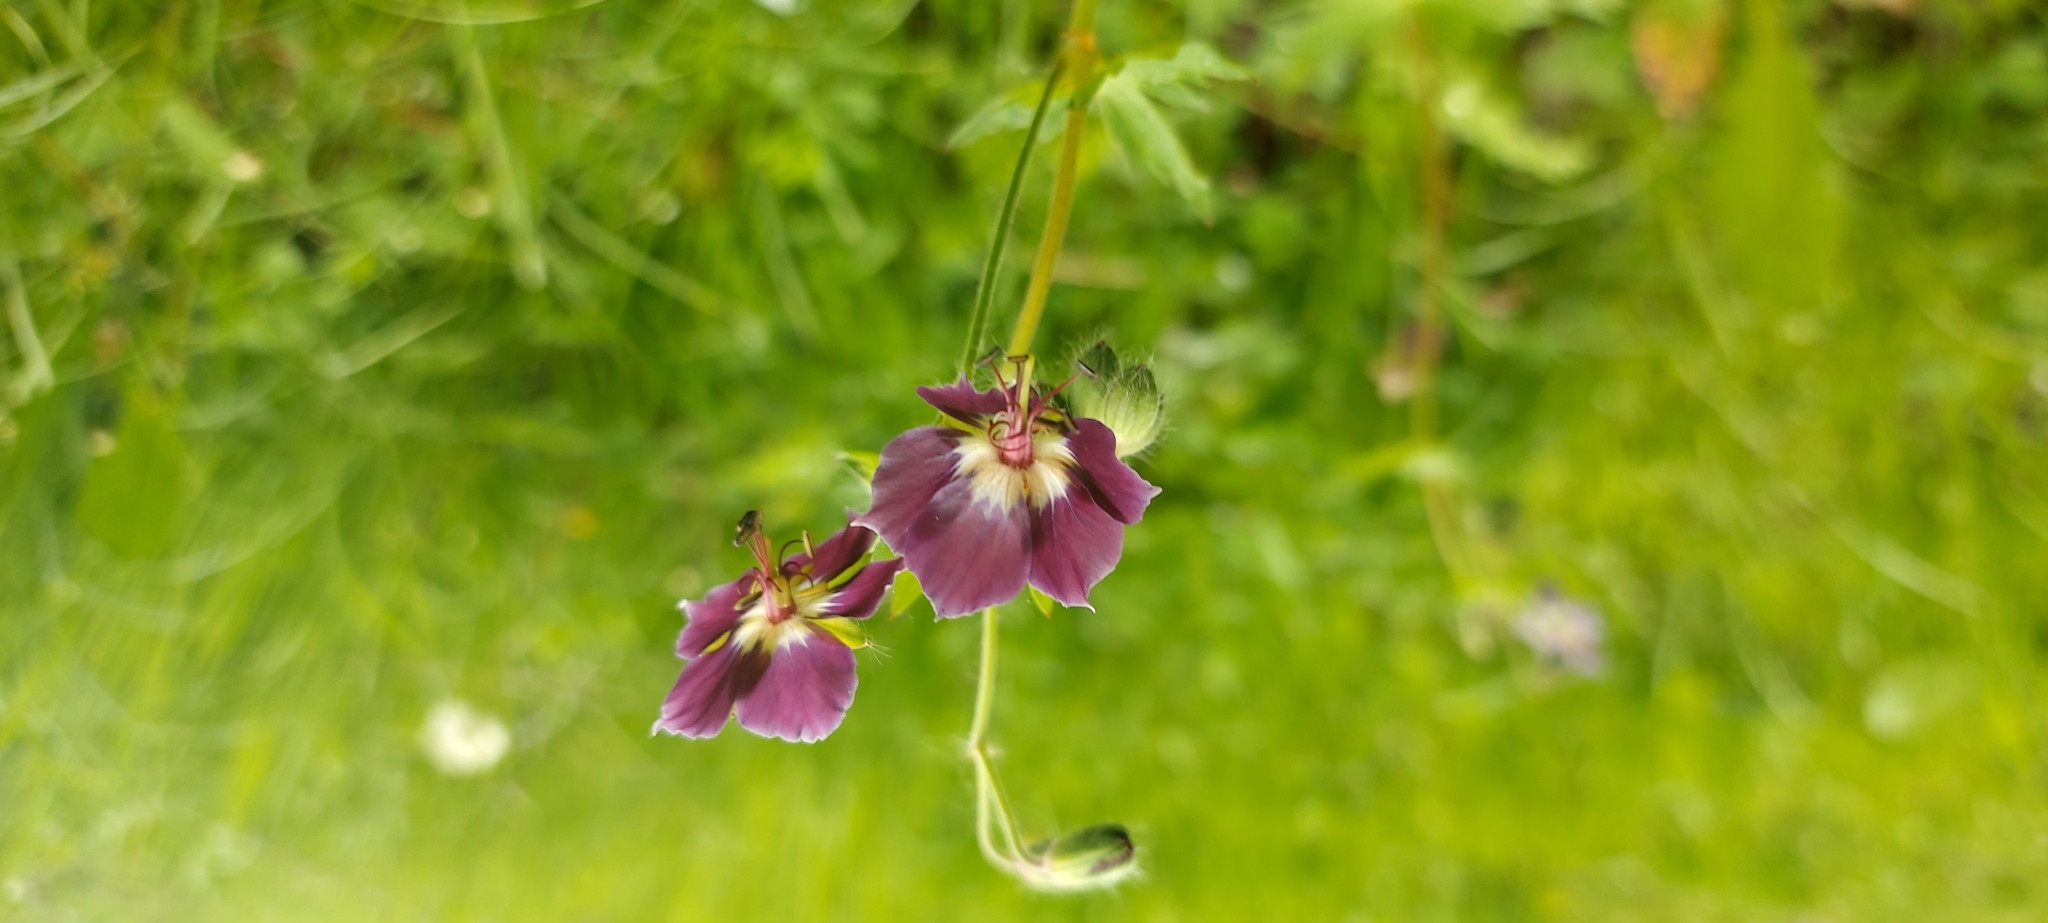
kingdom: Plantae
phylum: Tracheophyta
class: Magnoliopsida
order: Geraniales
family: Geraniaceae
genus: Geranium
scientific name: Geranium phaeum
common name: Dusky crane's-bill
